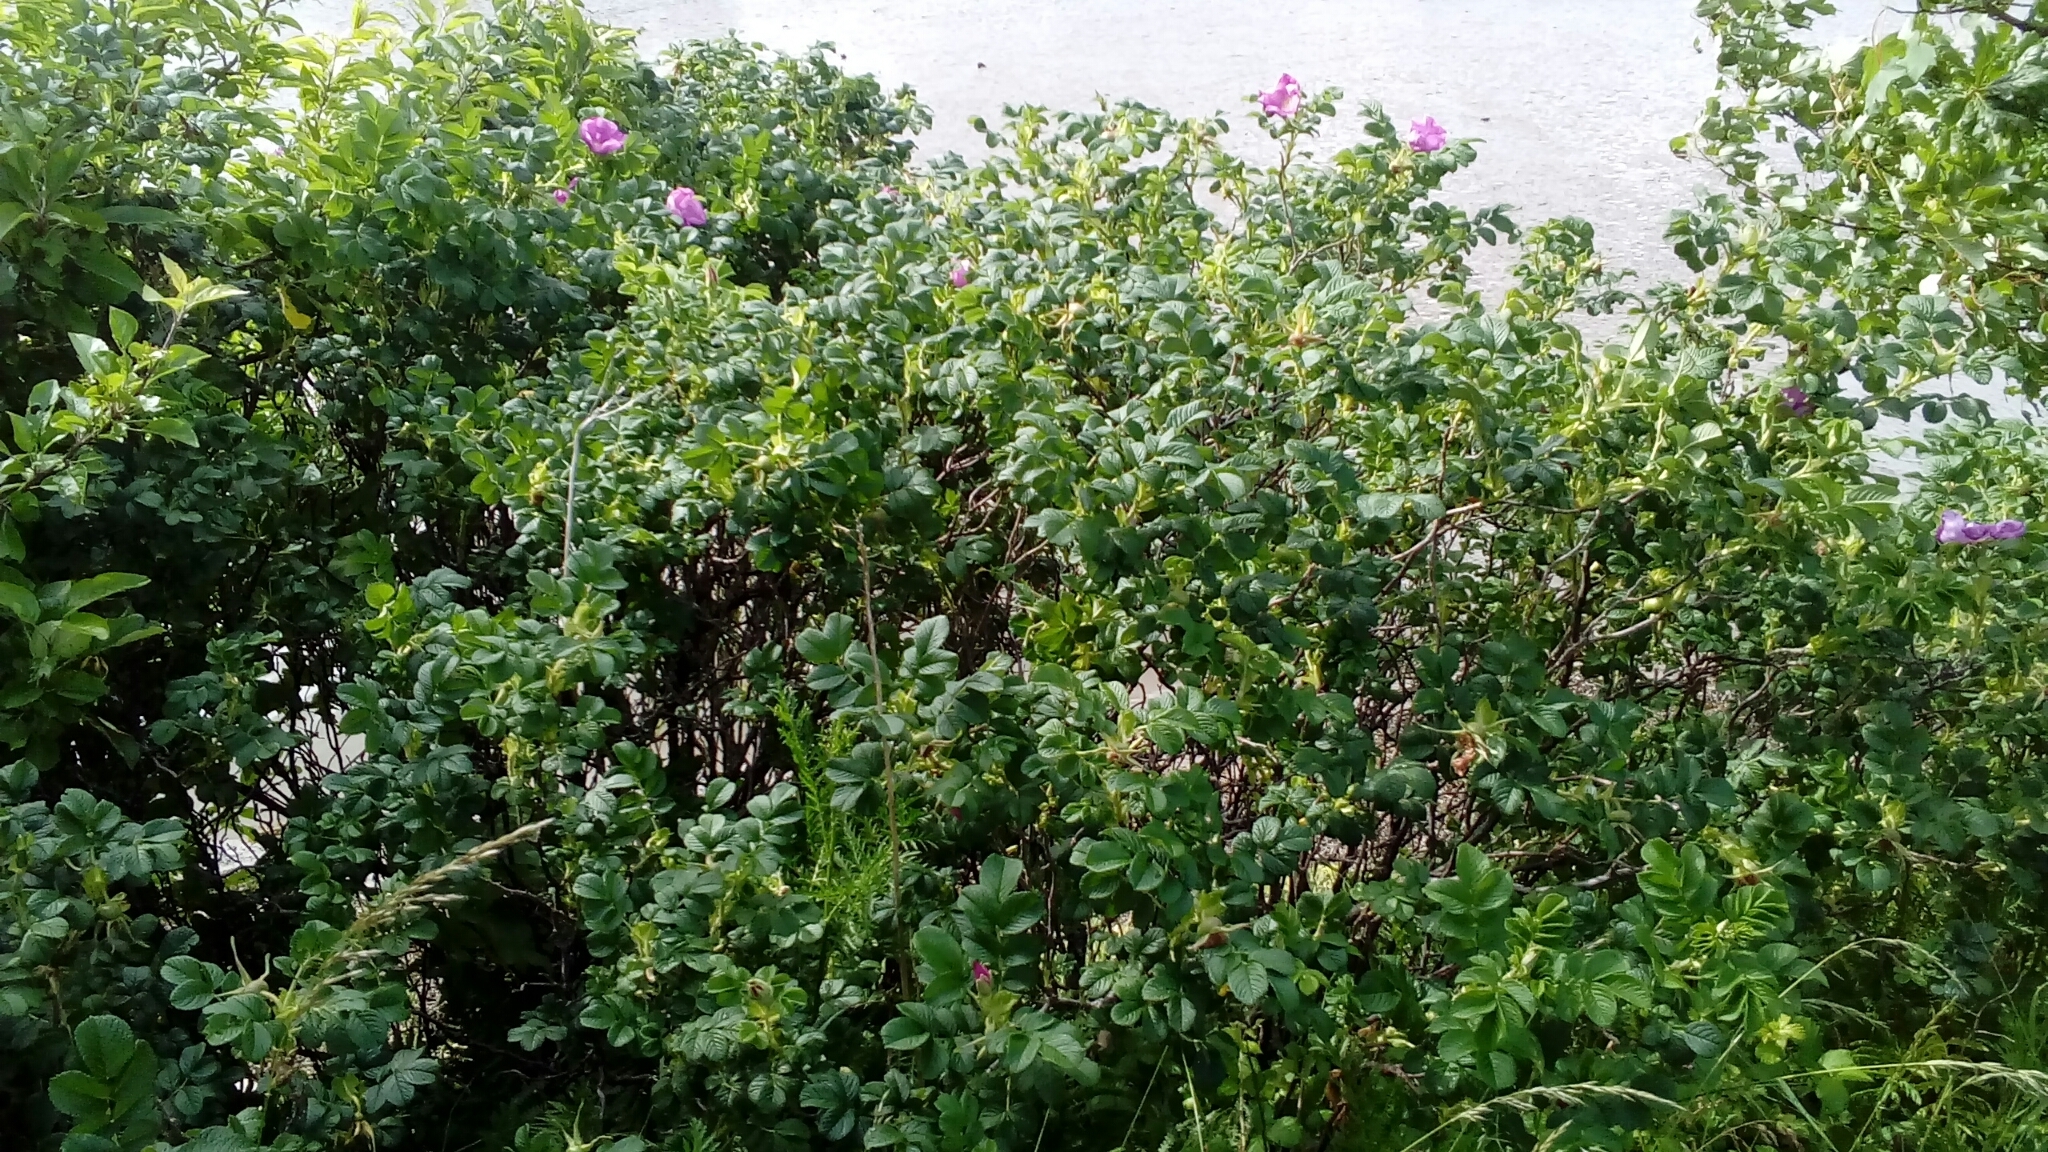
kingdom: Plantae
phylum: Tracheophyta
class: Magnoliopsida
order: Rosales
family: Rosaceae
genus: Rosa
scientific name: Rosa rugosa
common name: Japanese rose
